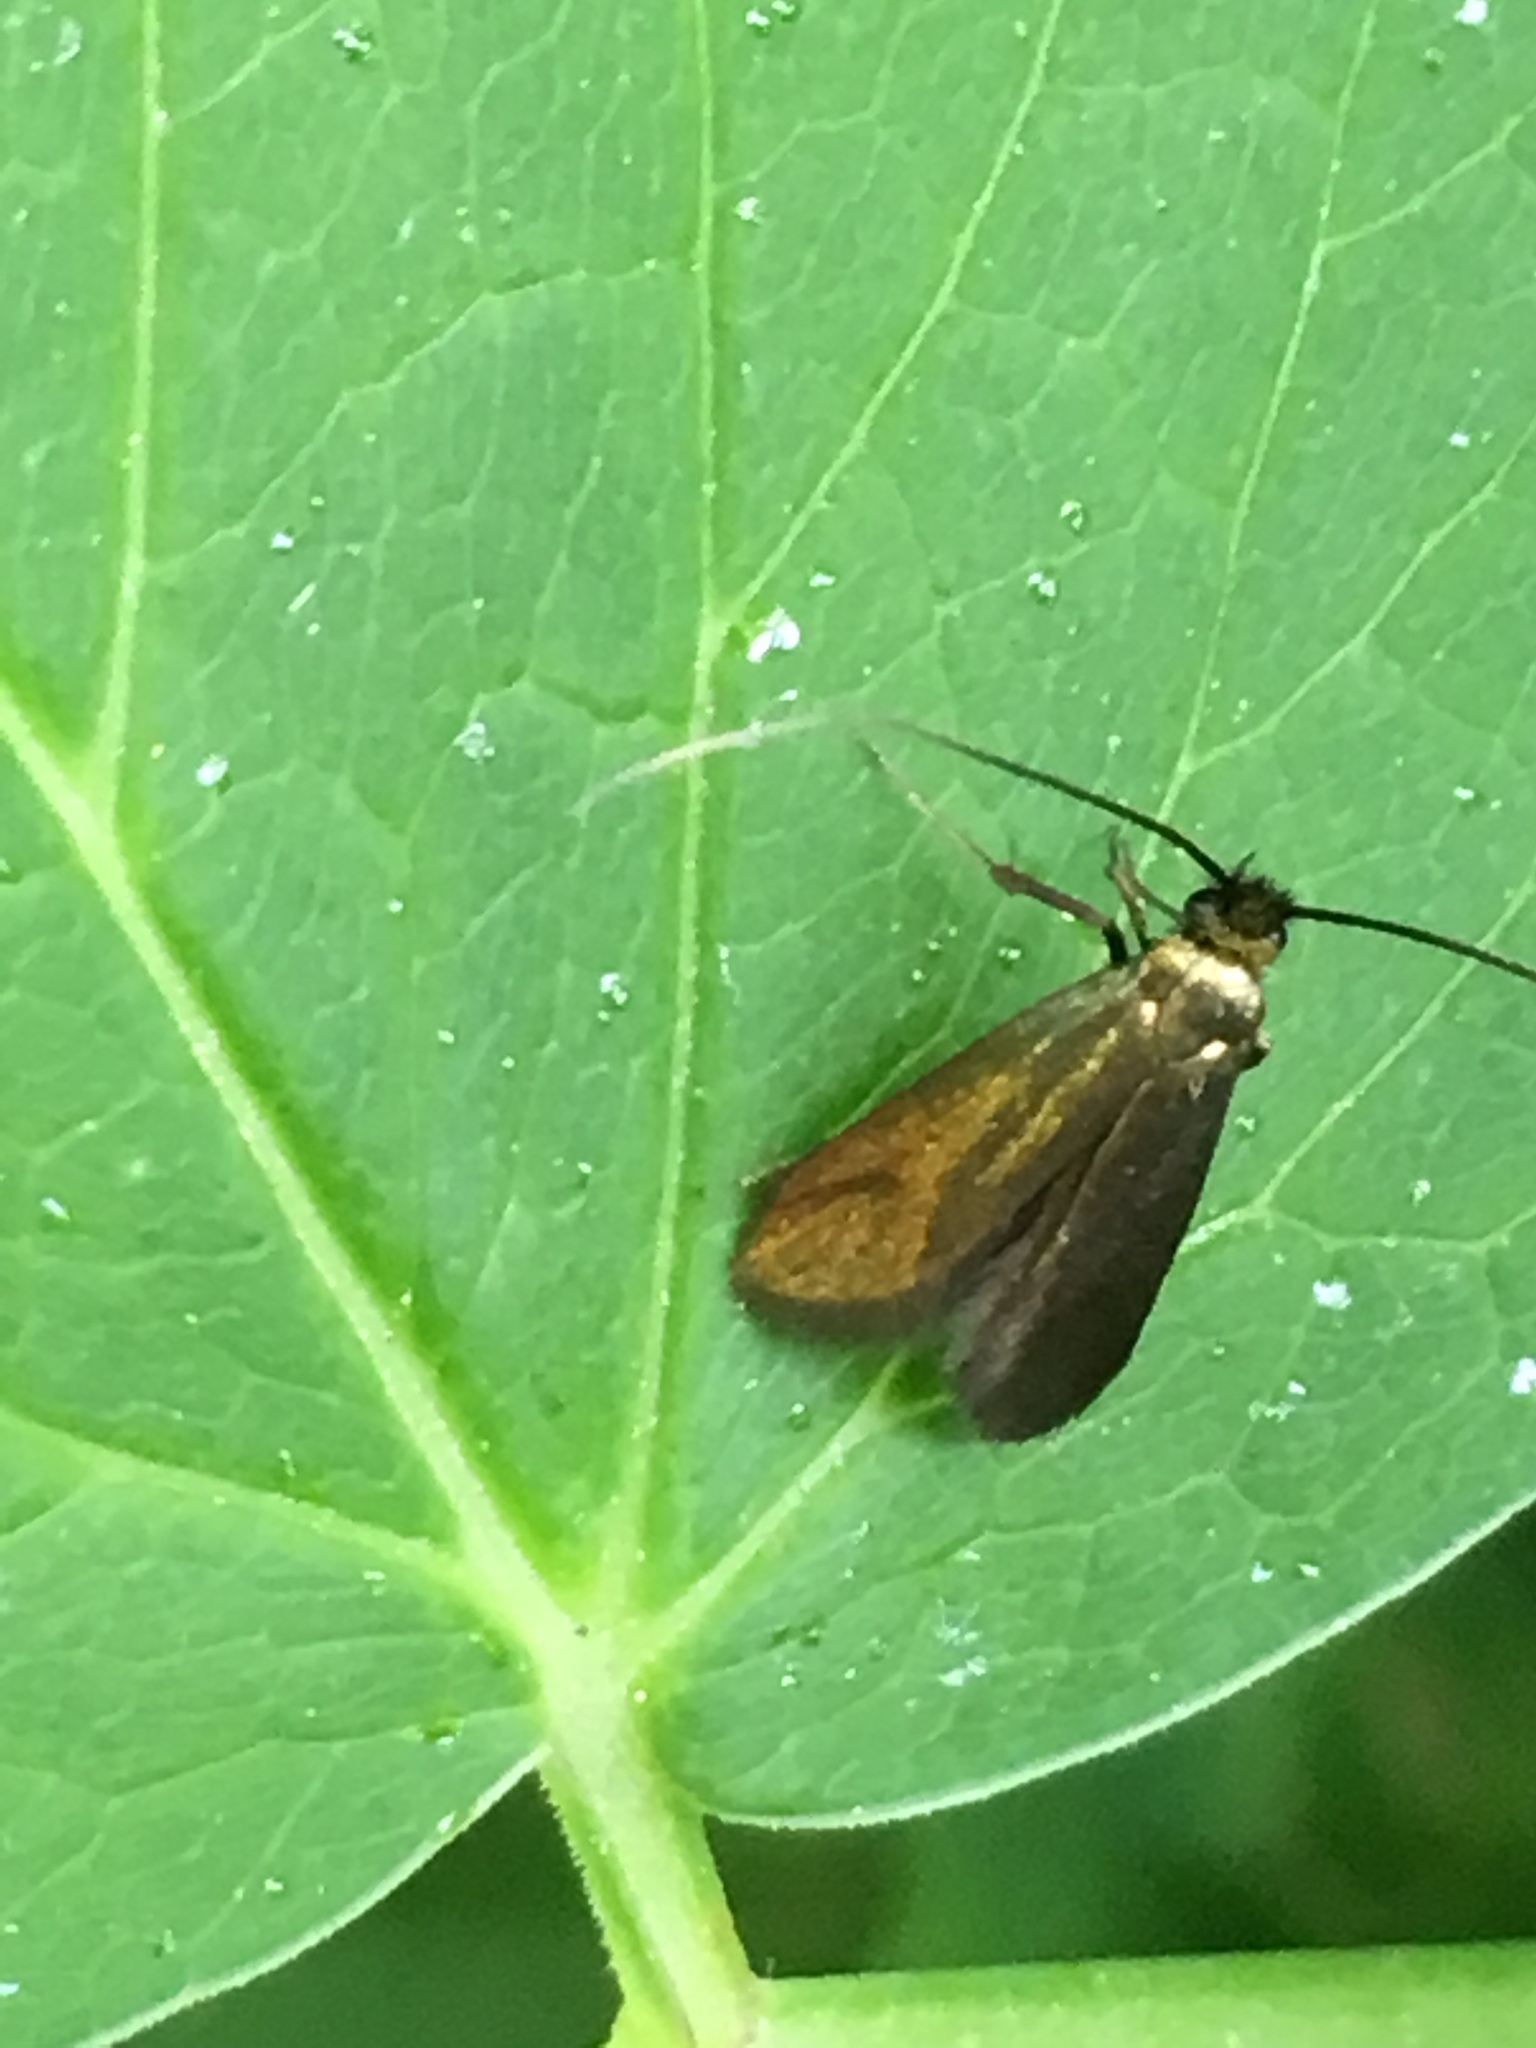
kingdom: Animalia
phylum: Arthropoda
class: Insecta
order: Lepidoptera
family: Adelidae
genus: Adela
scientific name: Adela viridella
